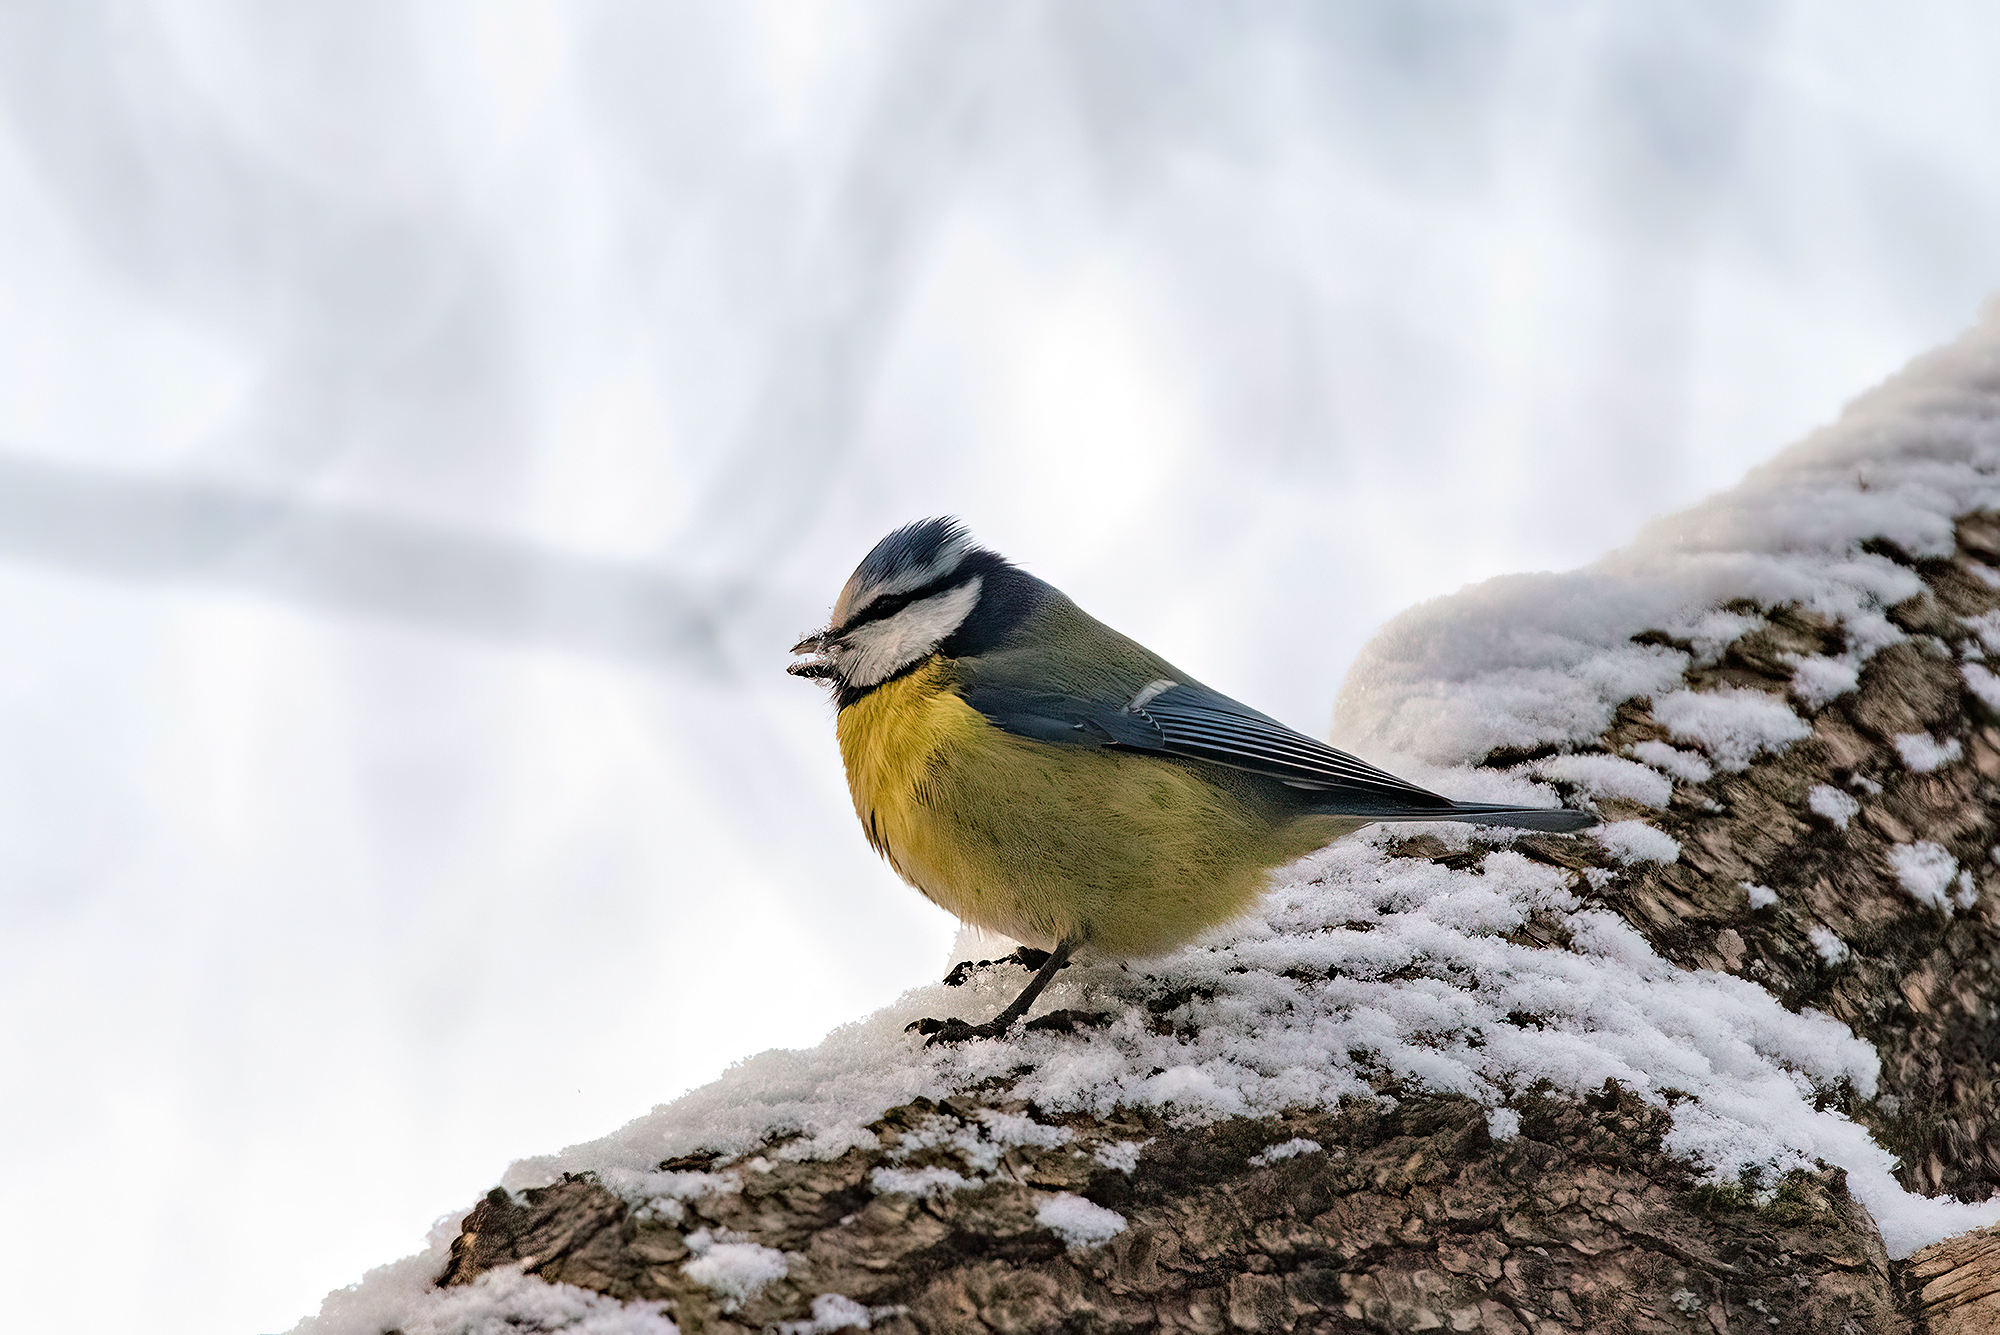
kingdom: Animalia
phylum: Chordata
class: Aves
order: Passeriformes
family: Paridae
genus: Cyanistes
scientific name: Cyanistes caeruleus
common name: Eurasian blue tit
